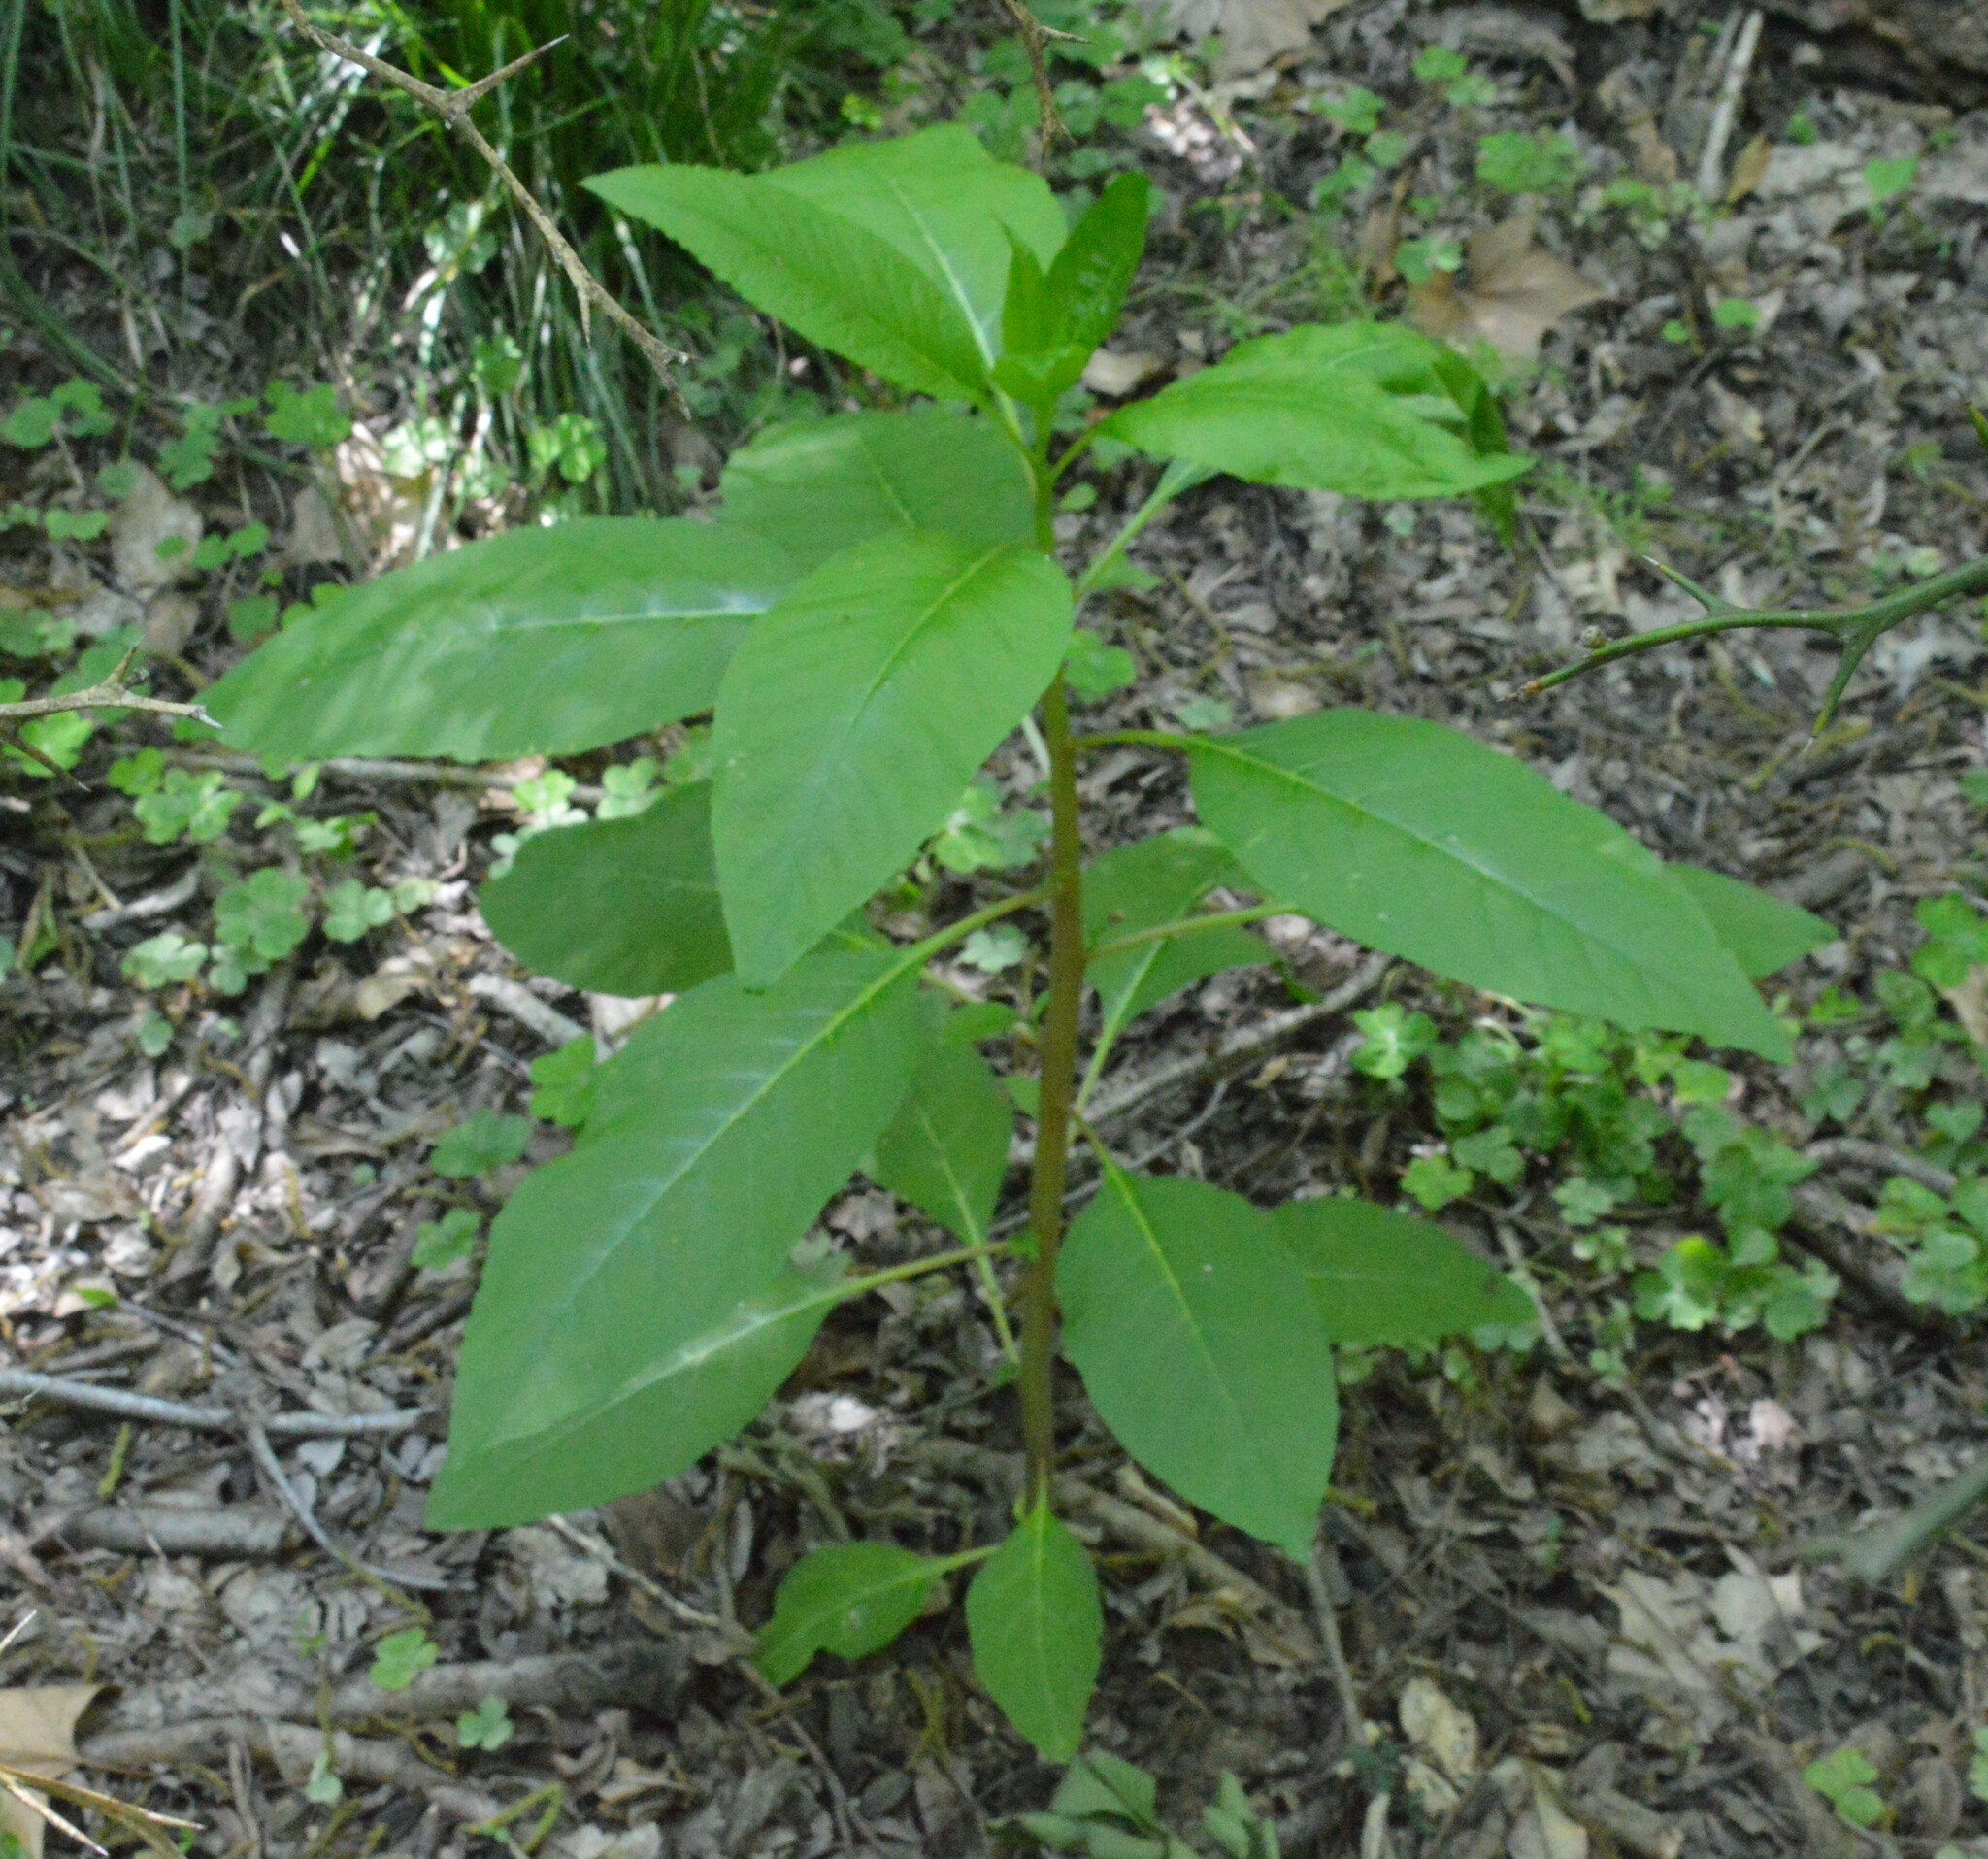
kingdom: Plantae
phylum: Tracheophyta
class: Magnoliopsida
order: Caryophyllales
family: Phytolaccaceae
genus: Phytolacca
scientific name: Phytolacca americana
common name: American pokeweed
